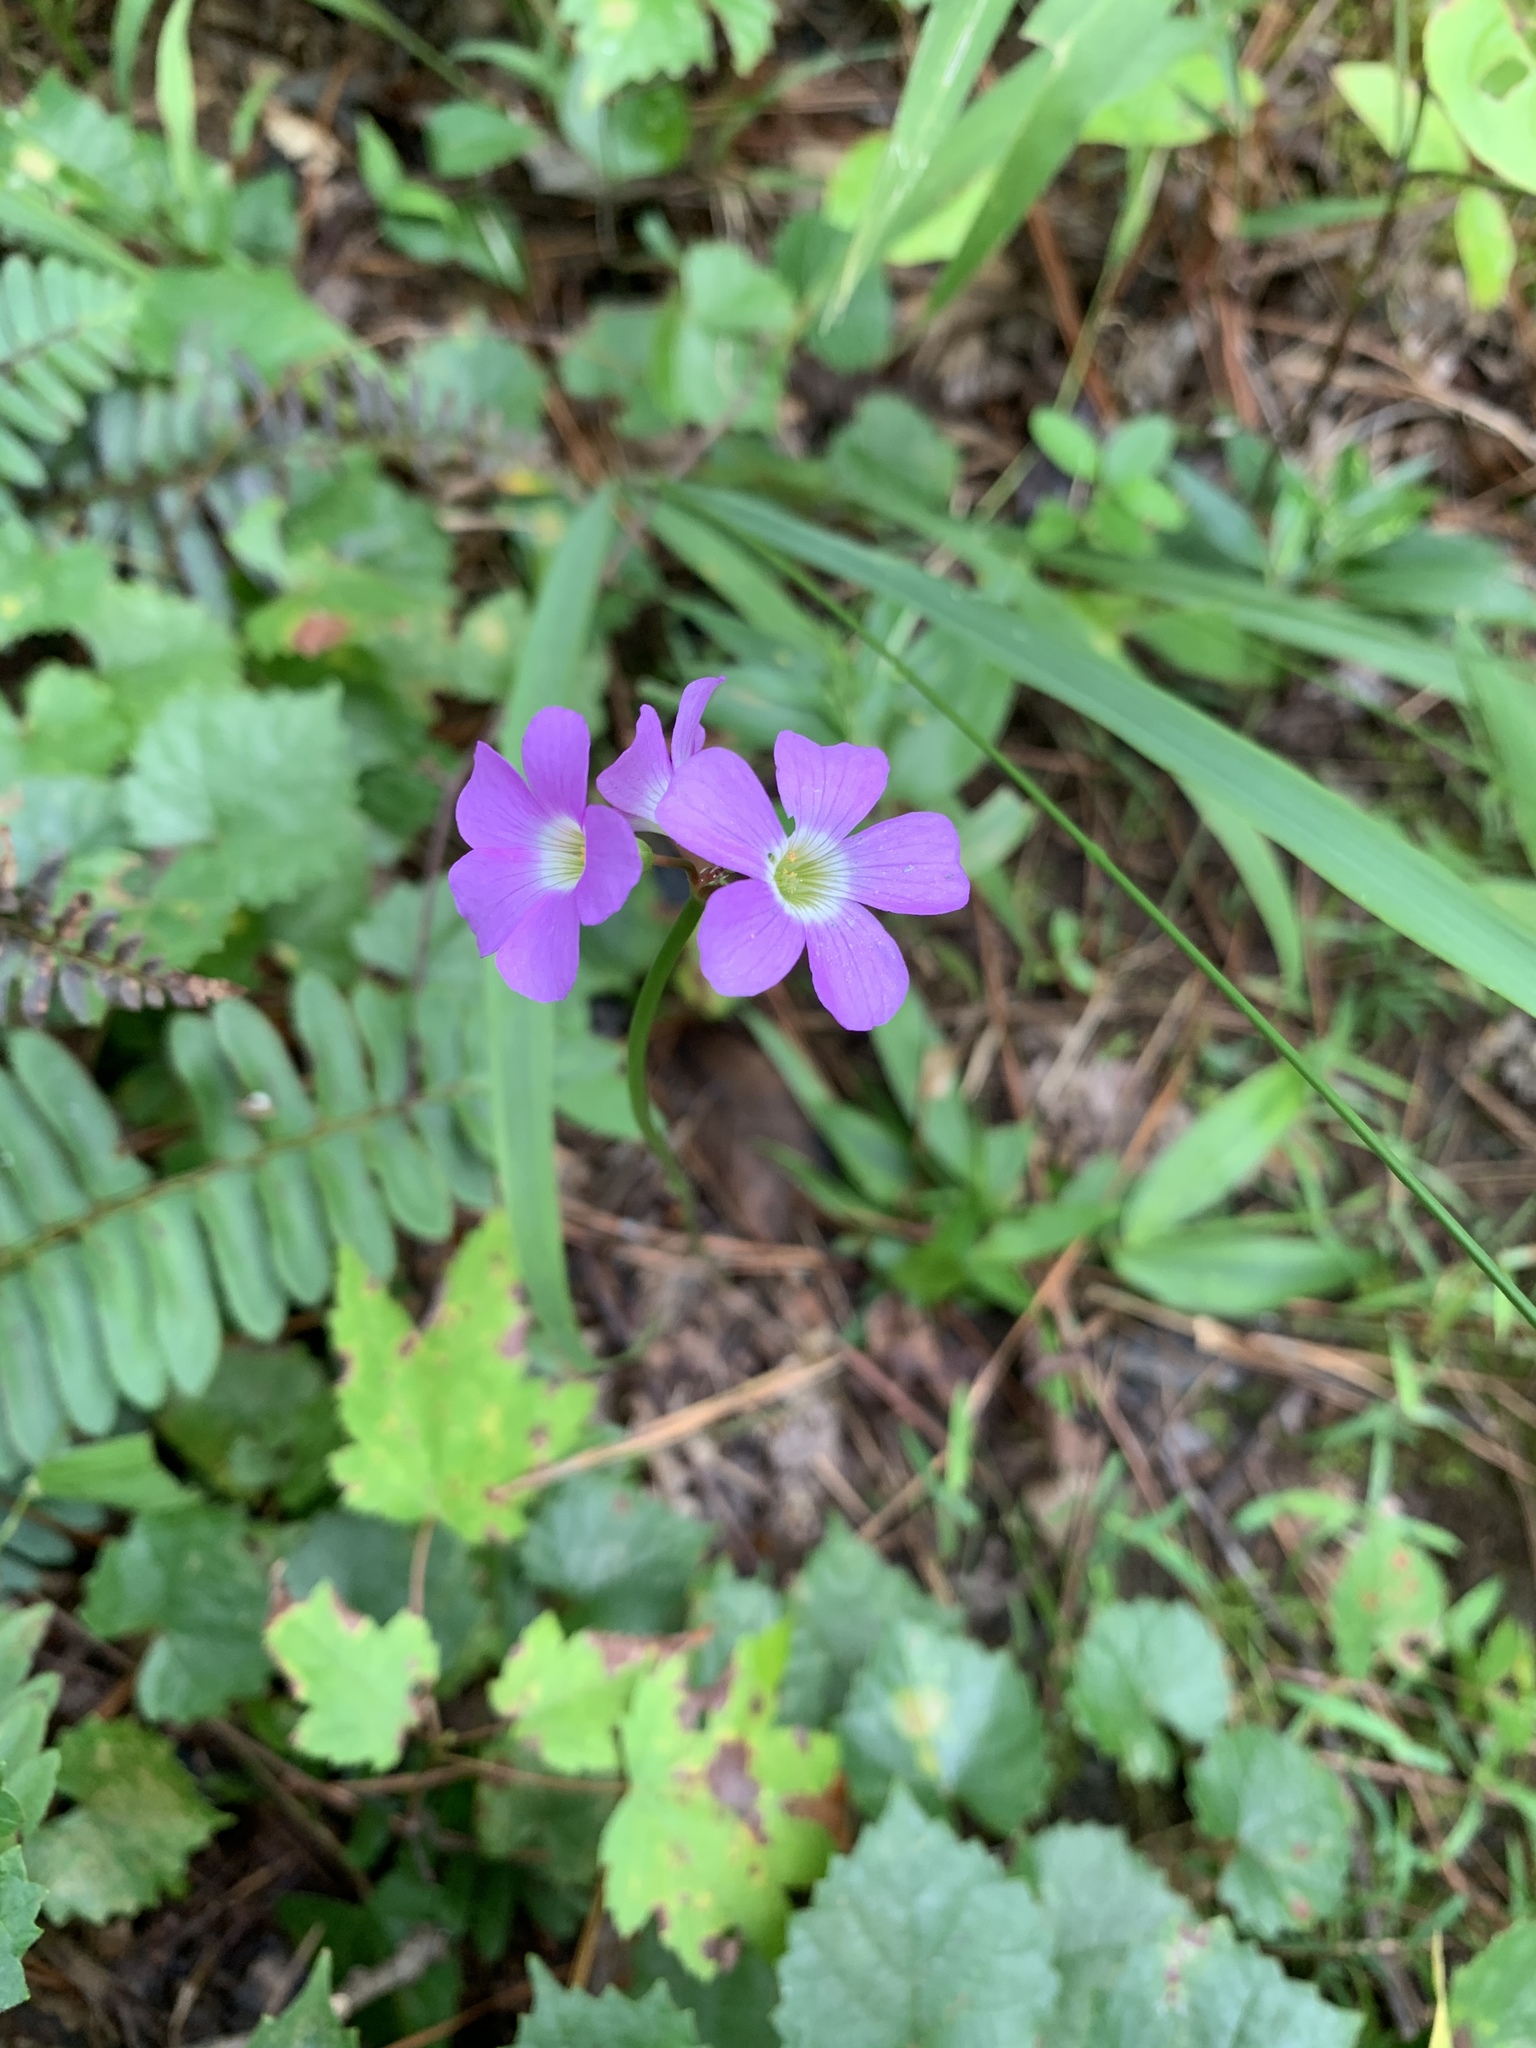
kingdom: Plantae
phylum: Tracheophyta
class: Magnoliopsida
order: Oxalidales
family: Oxalidaceae
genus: Oxalis
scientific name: Oxalis violacea
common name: Violet wood-sorrel
